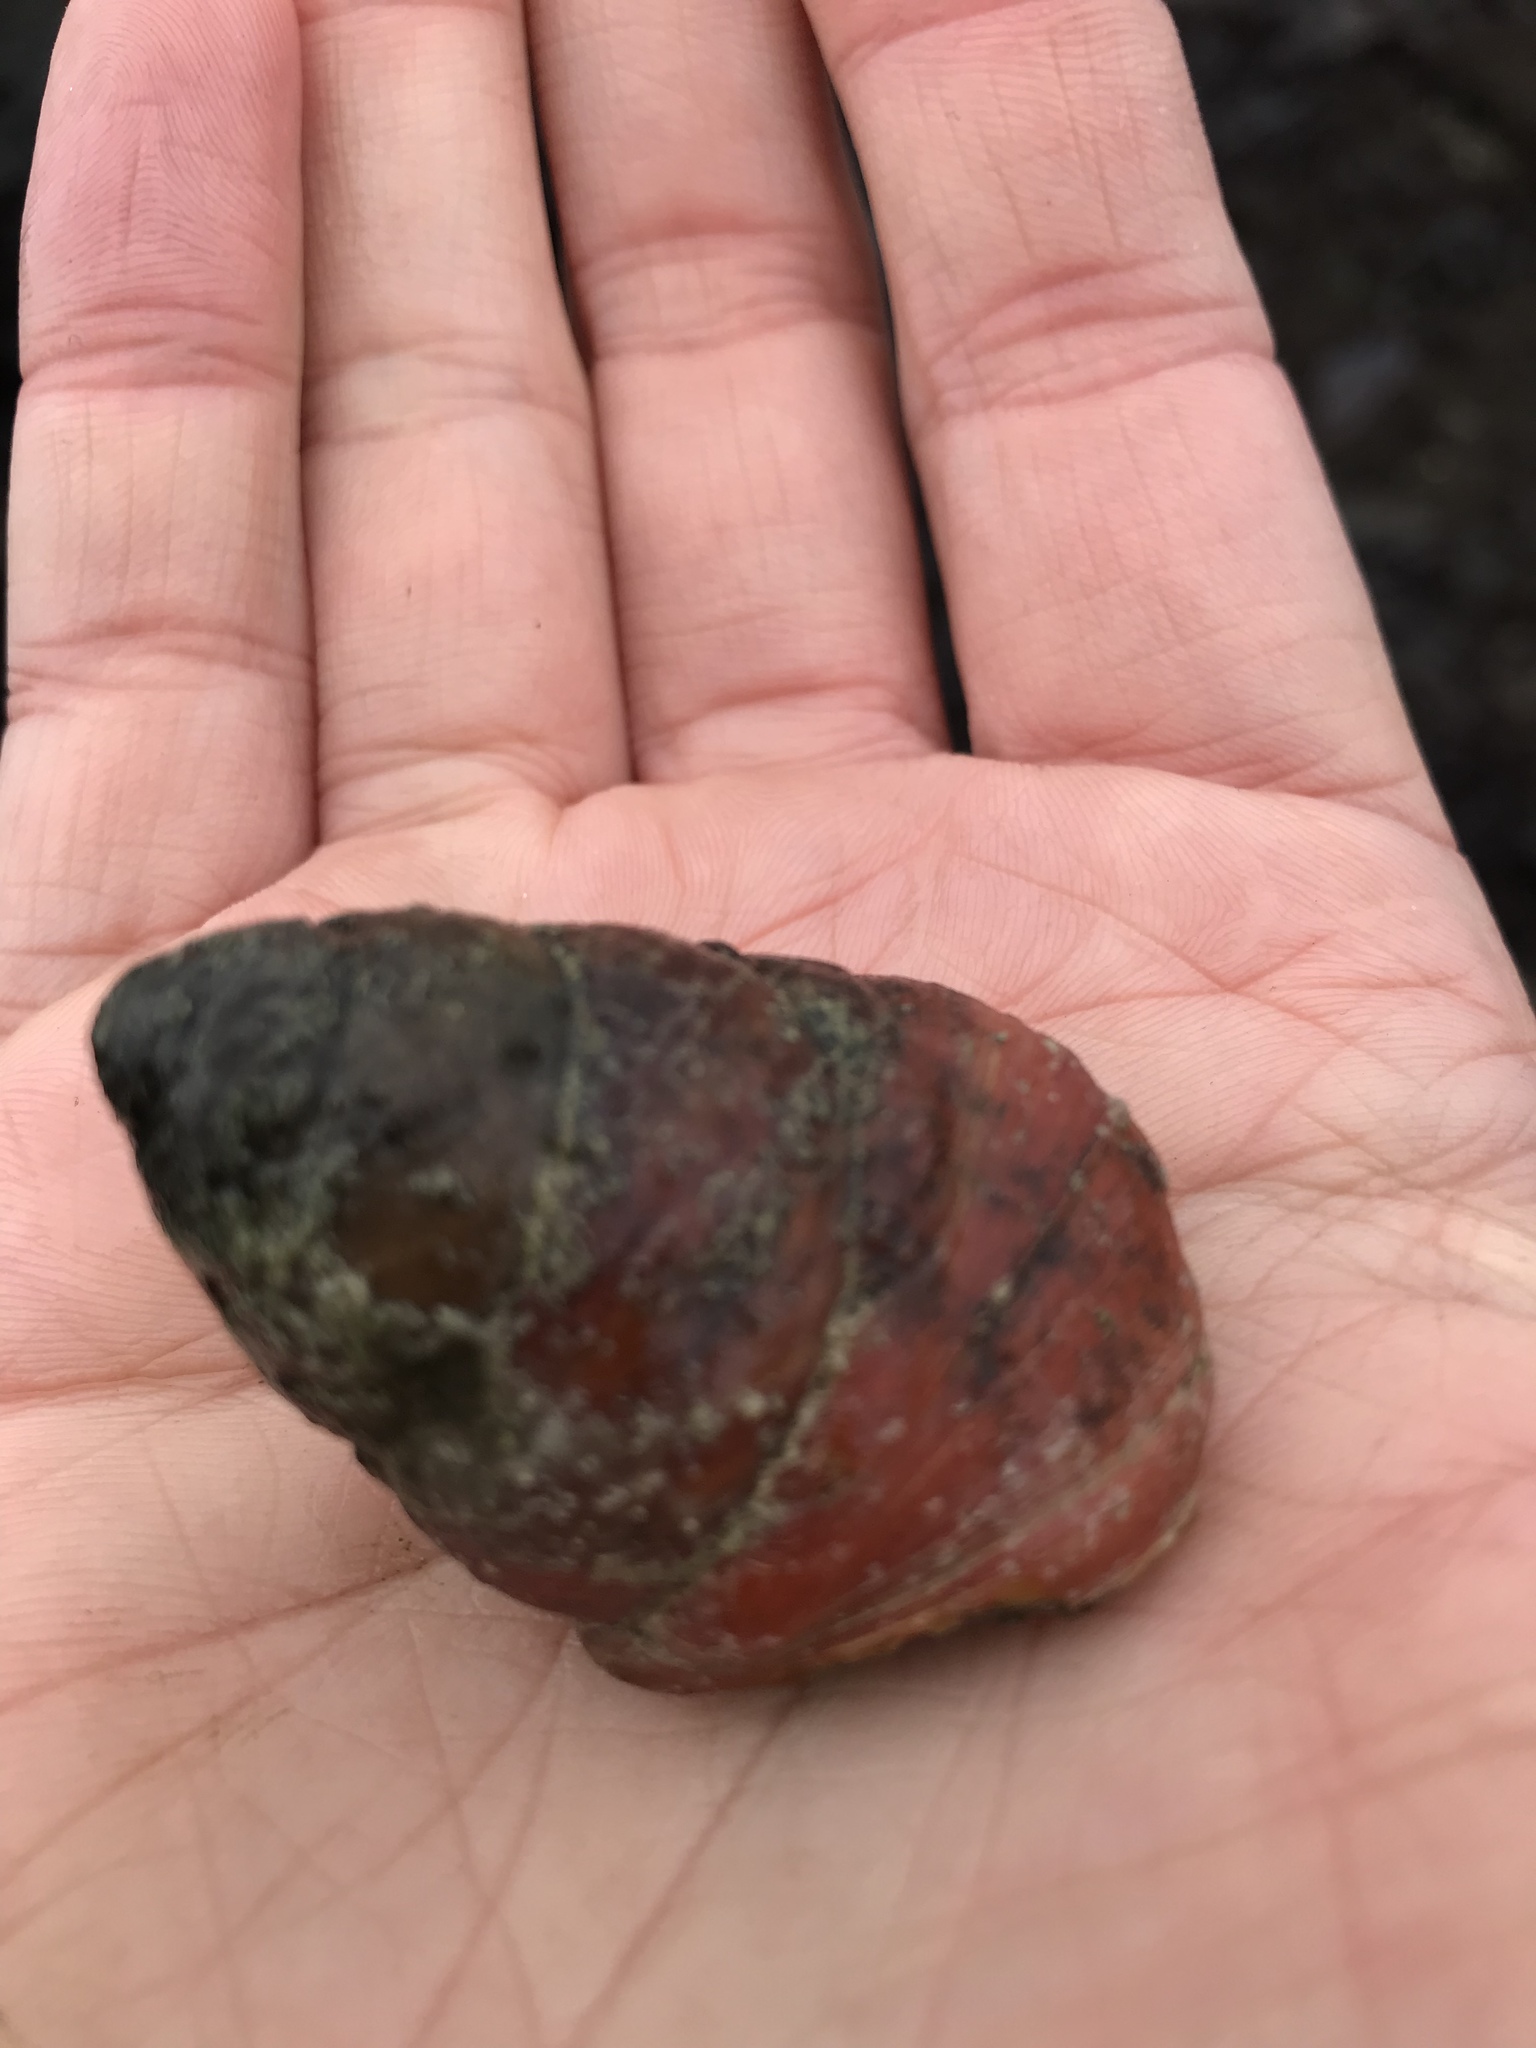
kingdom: Animalia
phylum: Mollusca
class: Gastropoda
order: Trochida
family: Tegulidae
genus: Tegula
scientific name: Tegula brunnea
